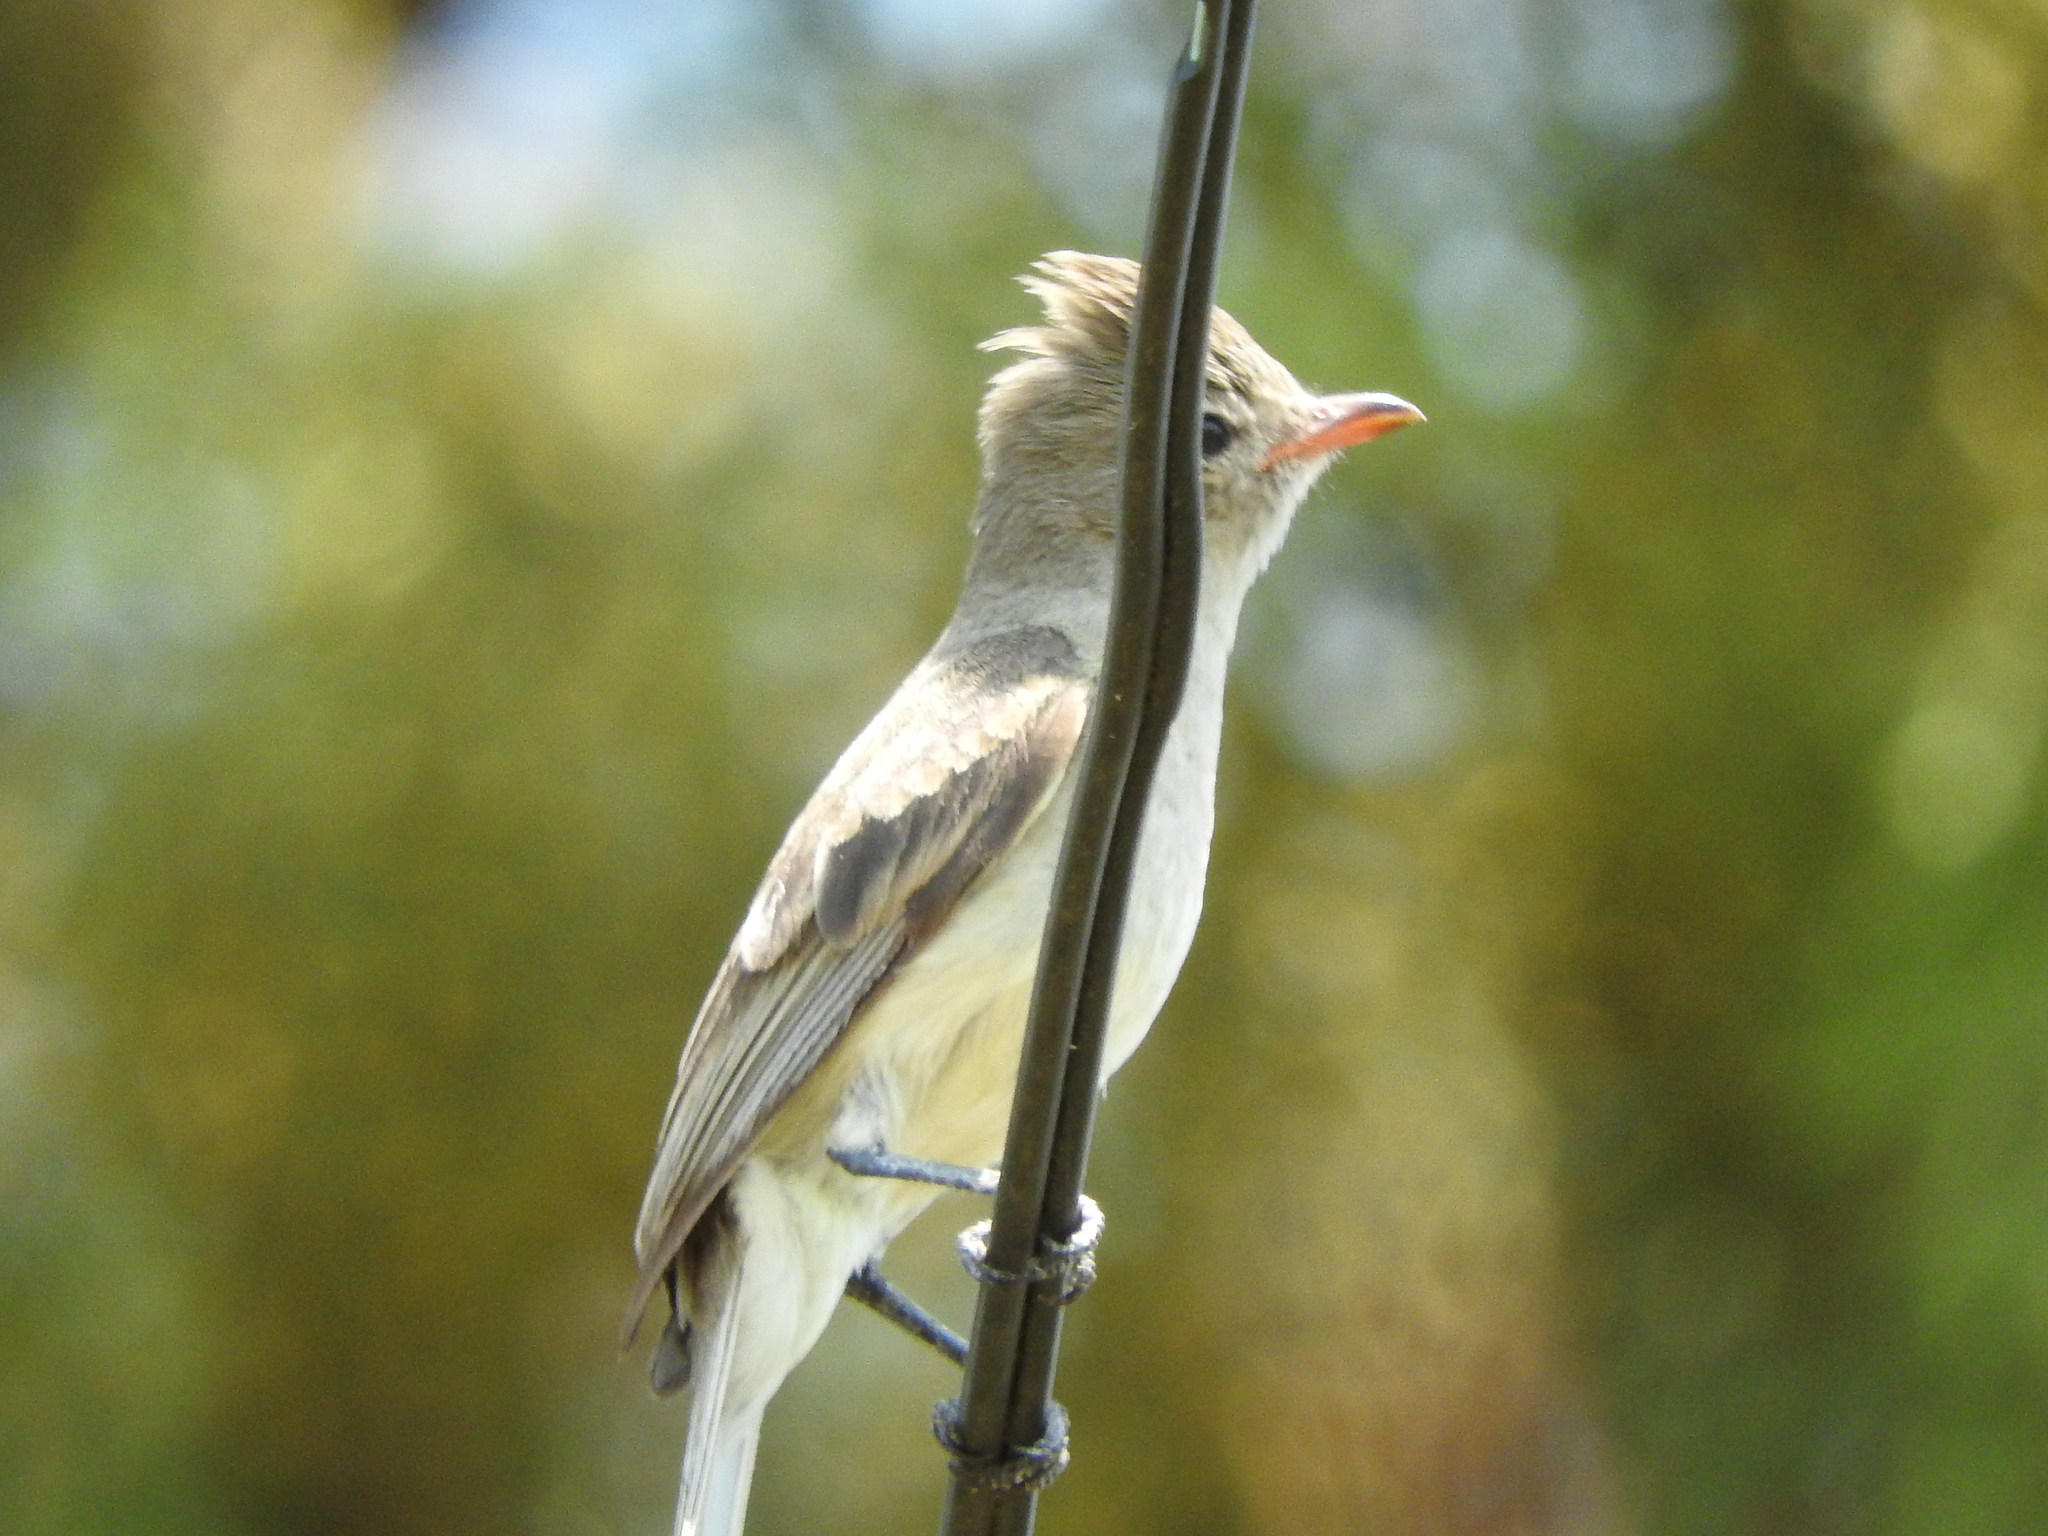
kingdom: Animalia
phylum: Chordata
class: Aves
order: Passeriformes
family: Tyrannidae
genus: Camptostoma
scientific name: Camptostoma imberbe
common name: Northern beardless-tyrannulet
